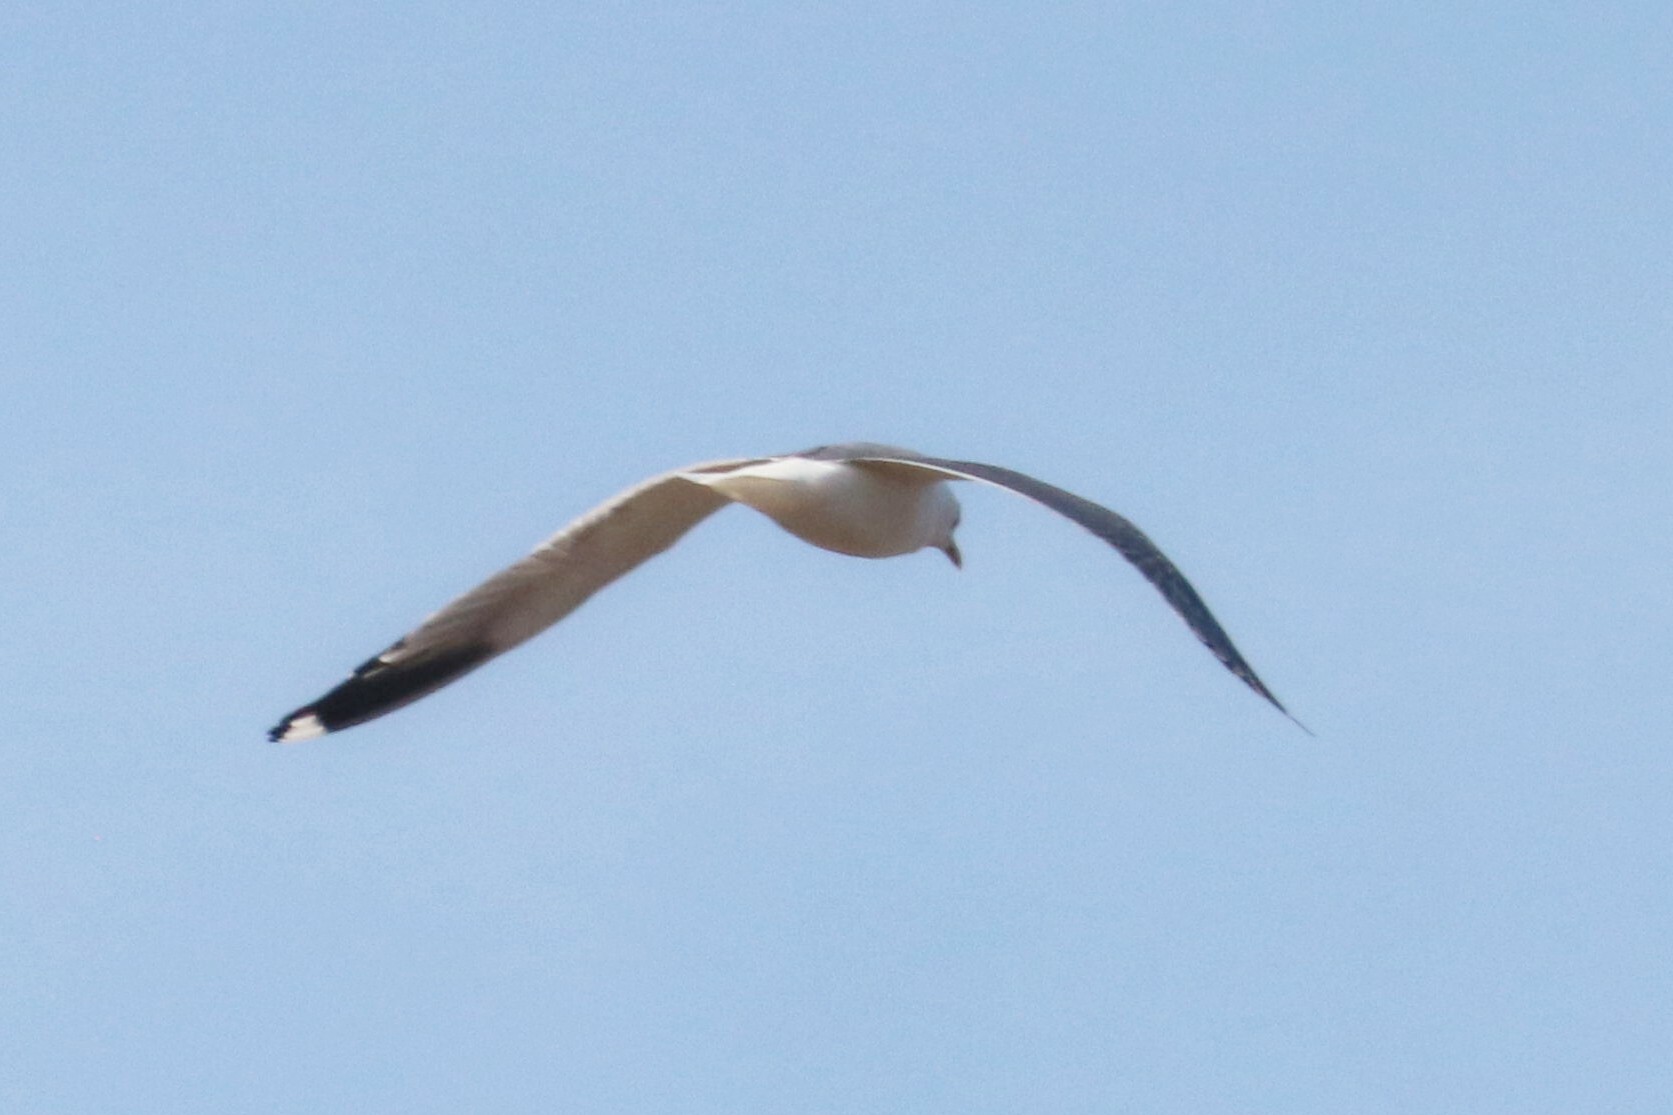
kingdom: Animalia
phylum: Chordata
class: Aves
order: Charadriiformes
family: Laridae
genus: Larus
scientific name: Larus canus
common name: Mew gull
